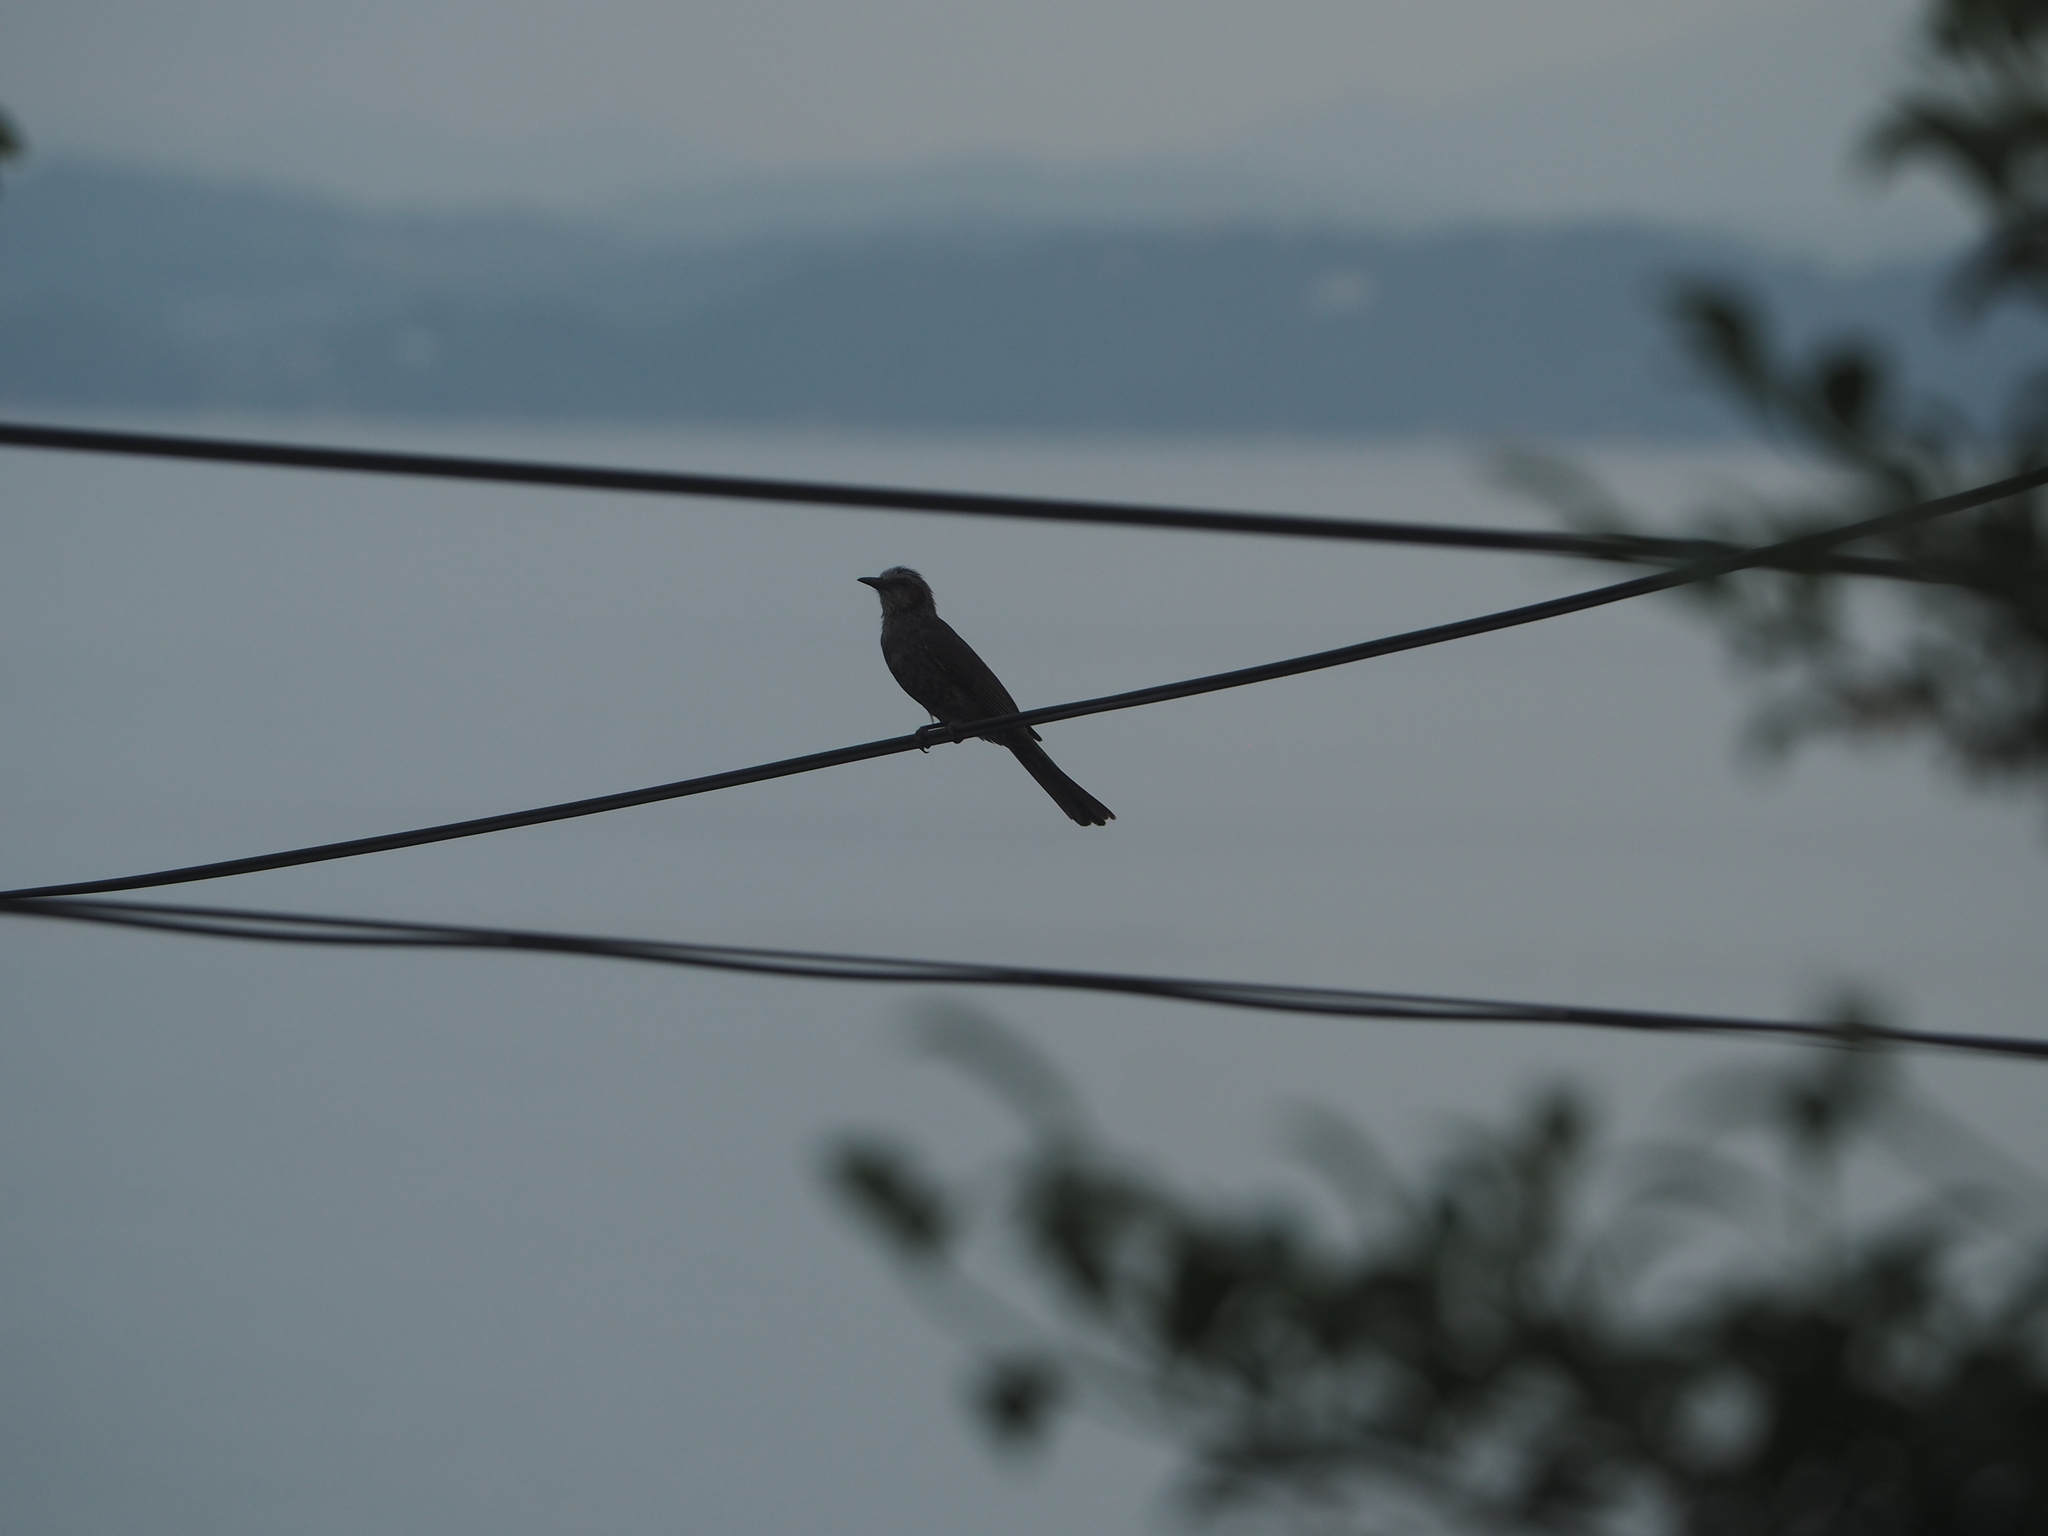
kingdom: Animalia
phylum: Chordata
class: Aves
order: Passeriformes
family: Pycnonotidae
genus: Hypsipetes
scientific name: Hypsipetes amaurotis
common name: Brown-eared bulbul
